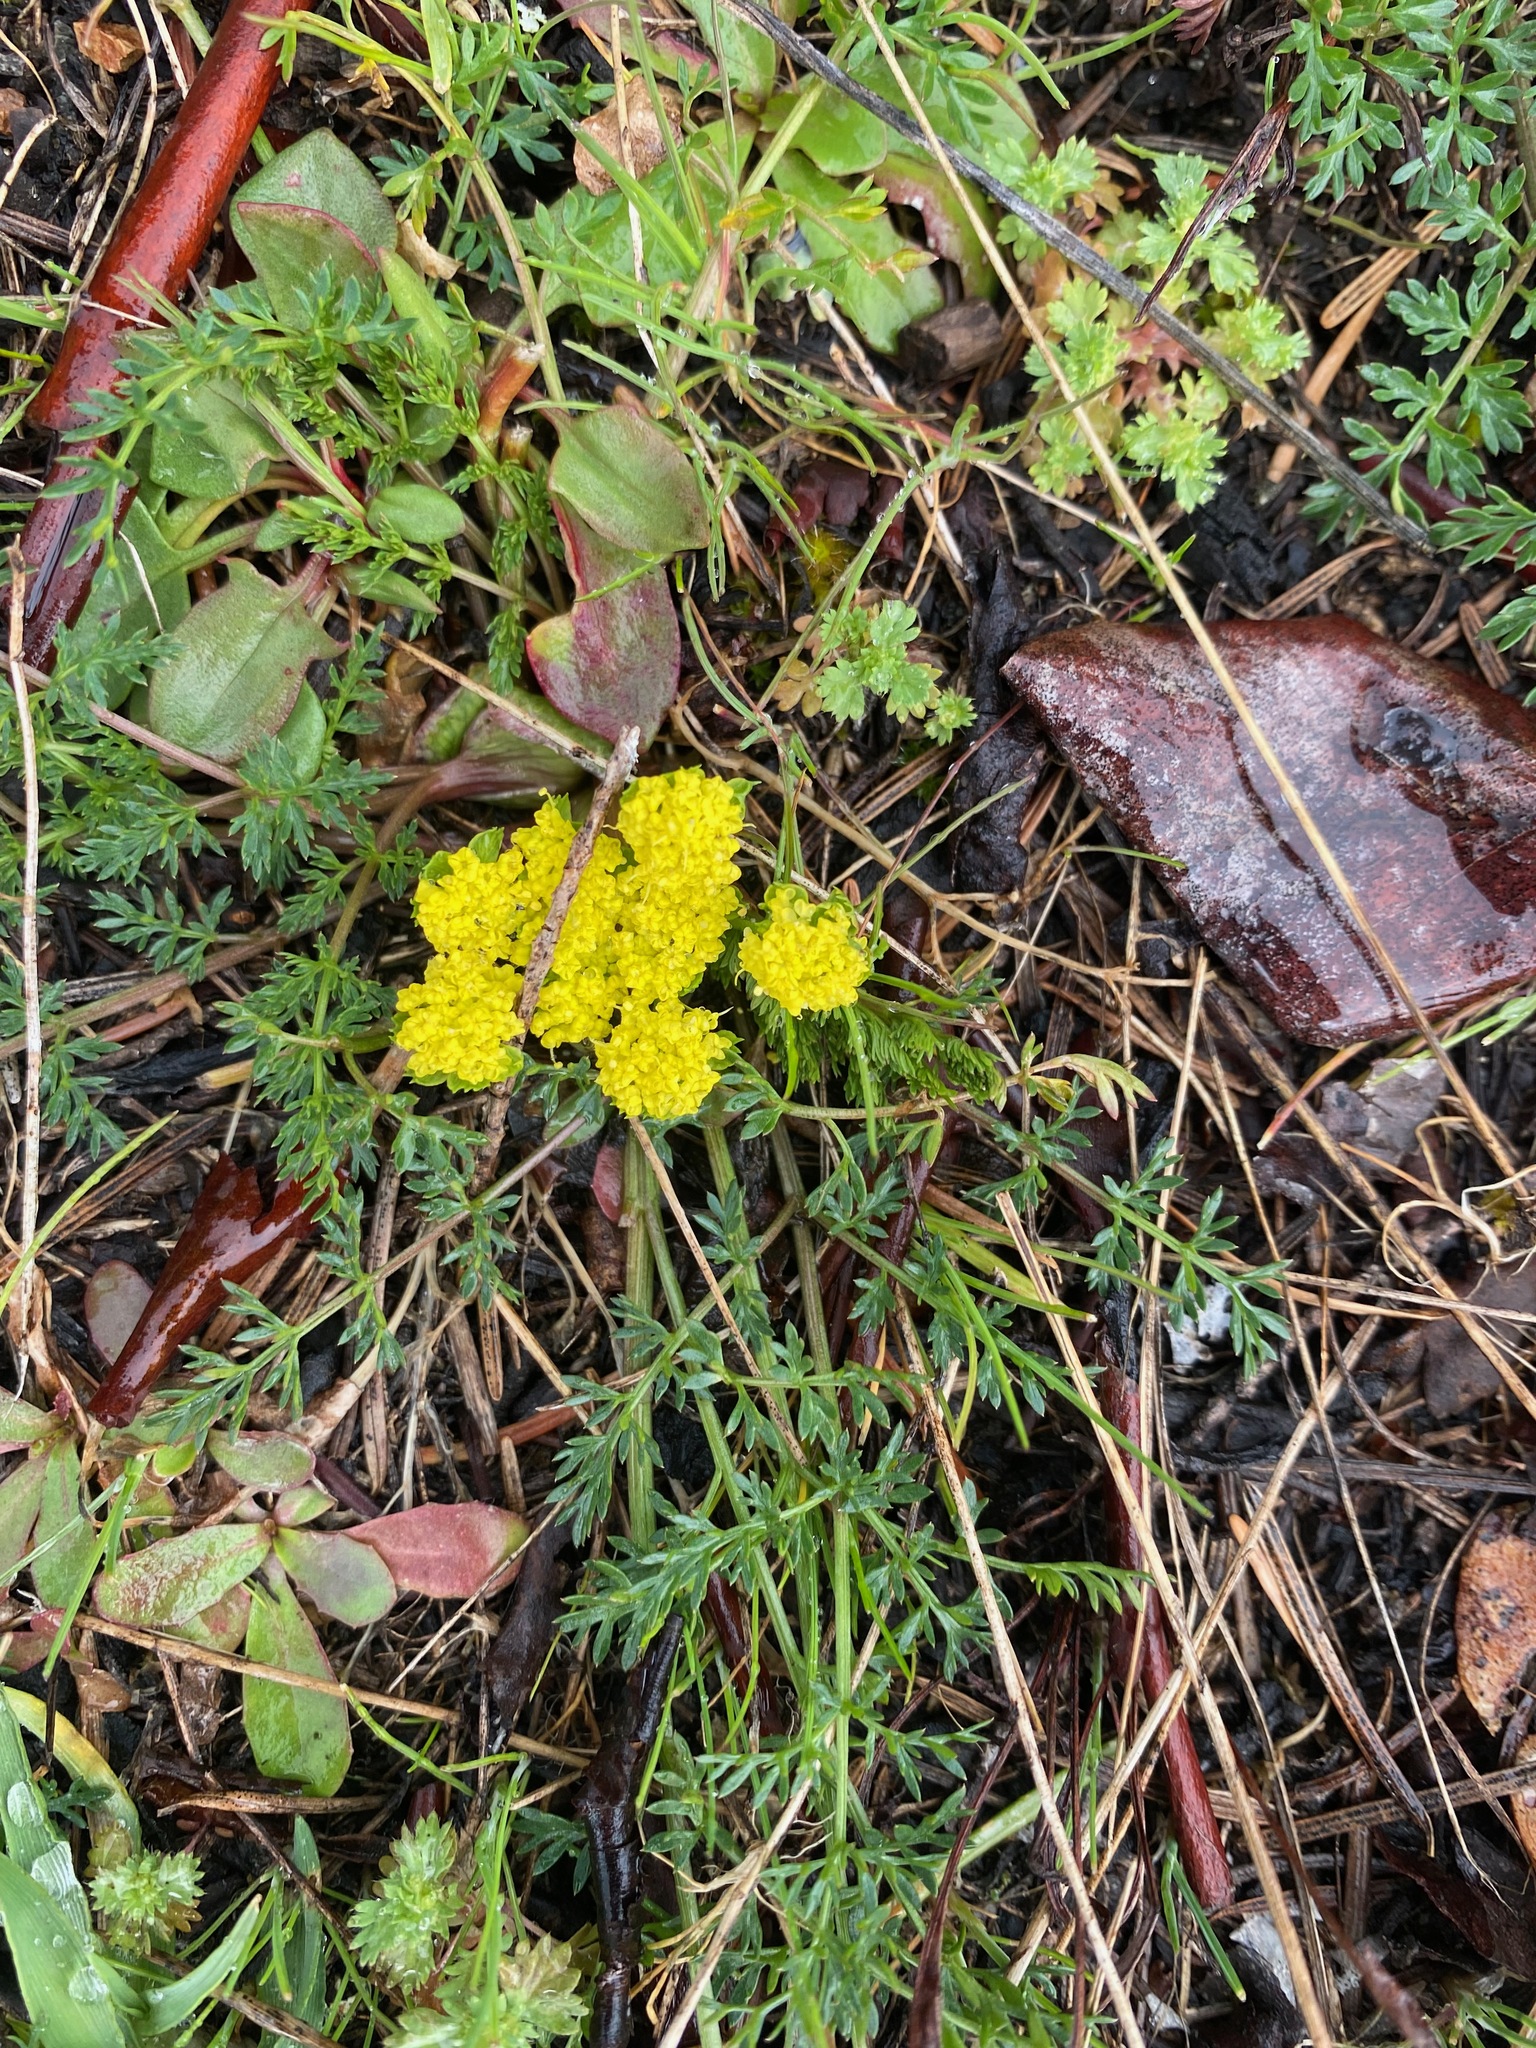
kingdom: Plantae
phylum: Tracheophyta
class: Magnoliopsida
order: Apiales
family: Apiaceae
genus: Lomatium
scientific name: Lomatium utriculatum
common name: Fine-leaf desert-parsley
